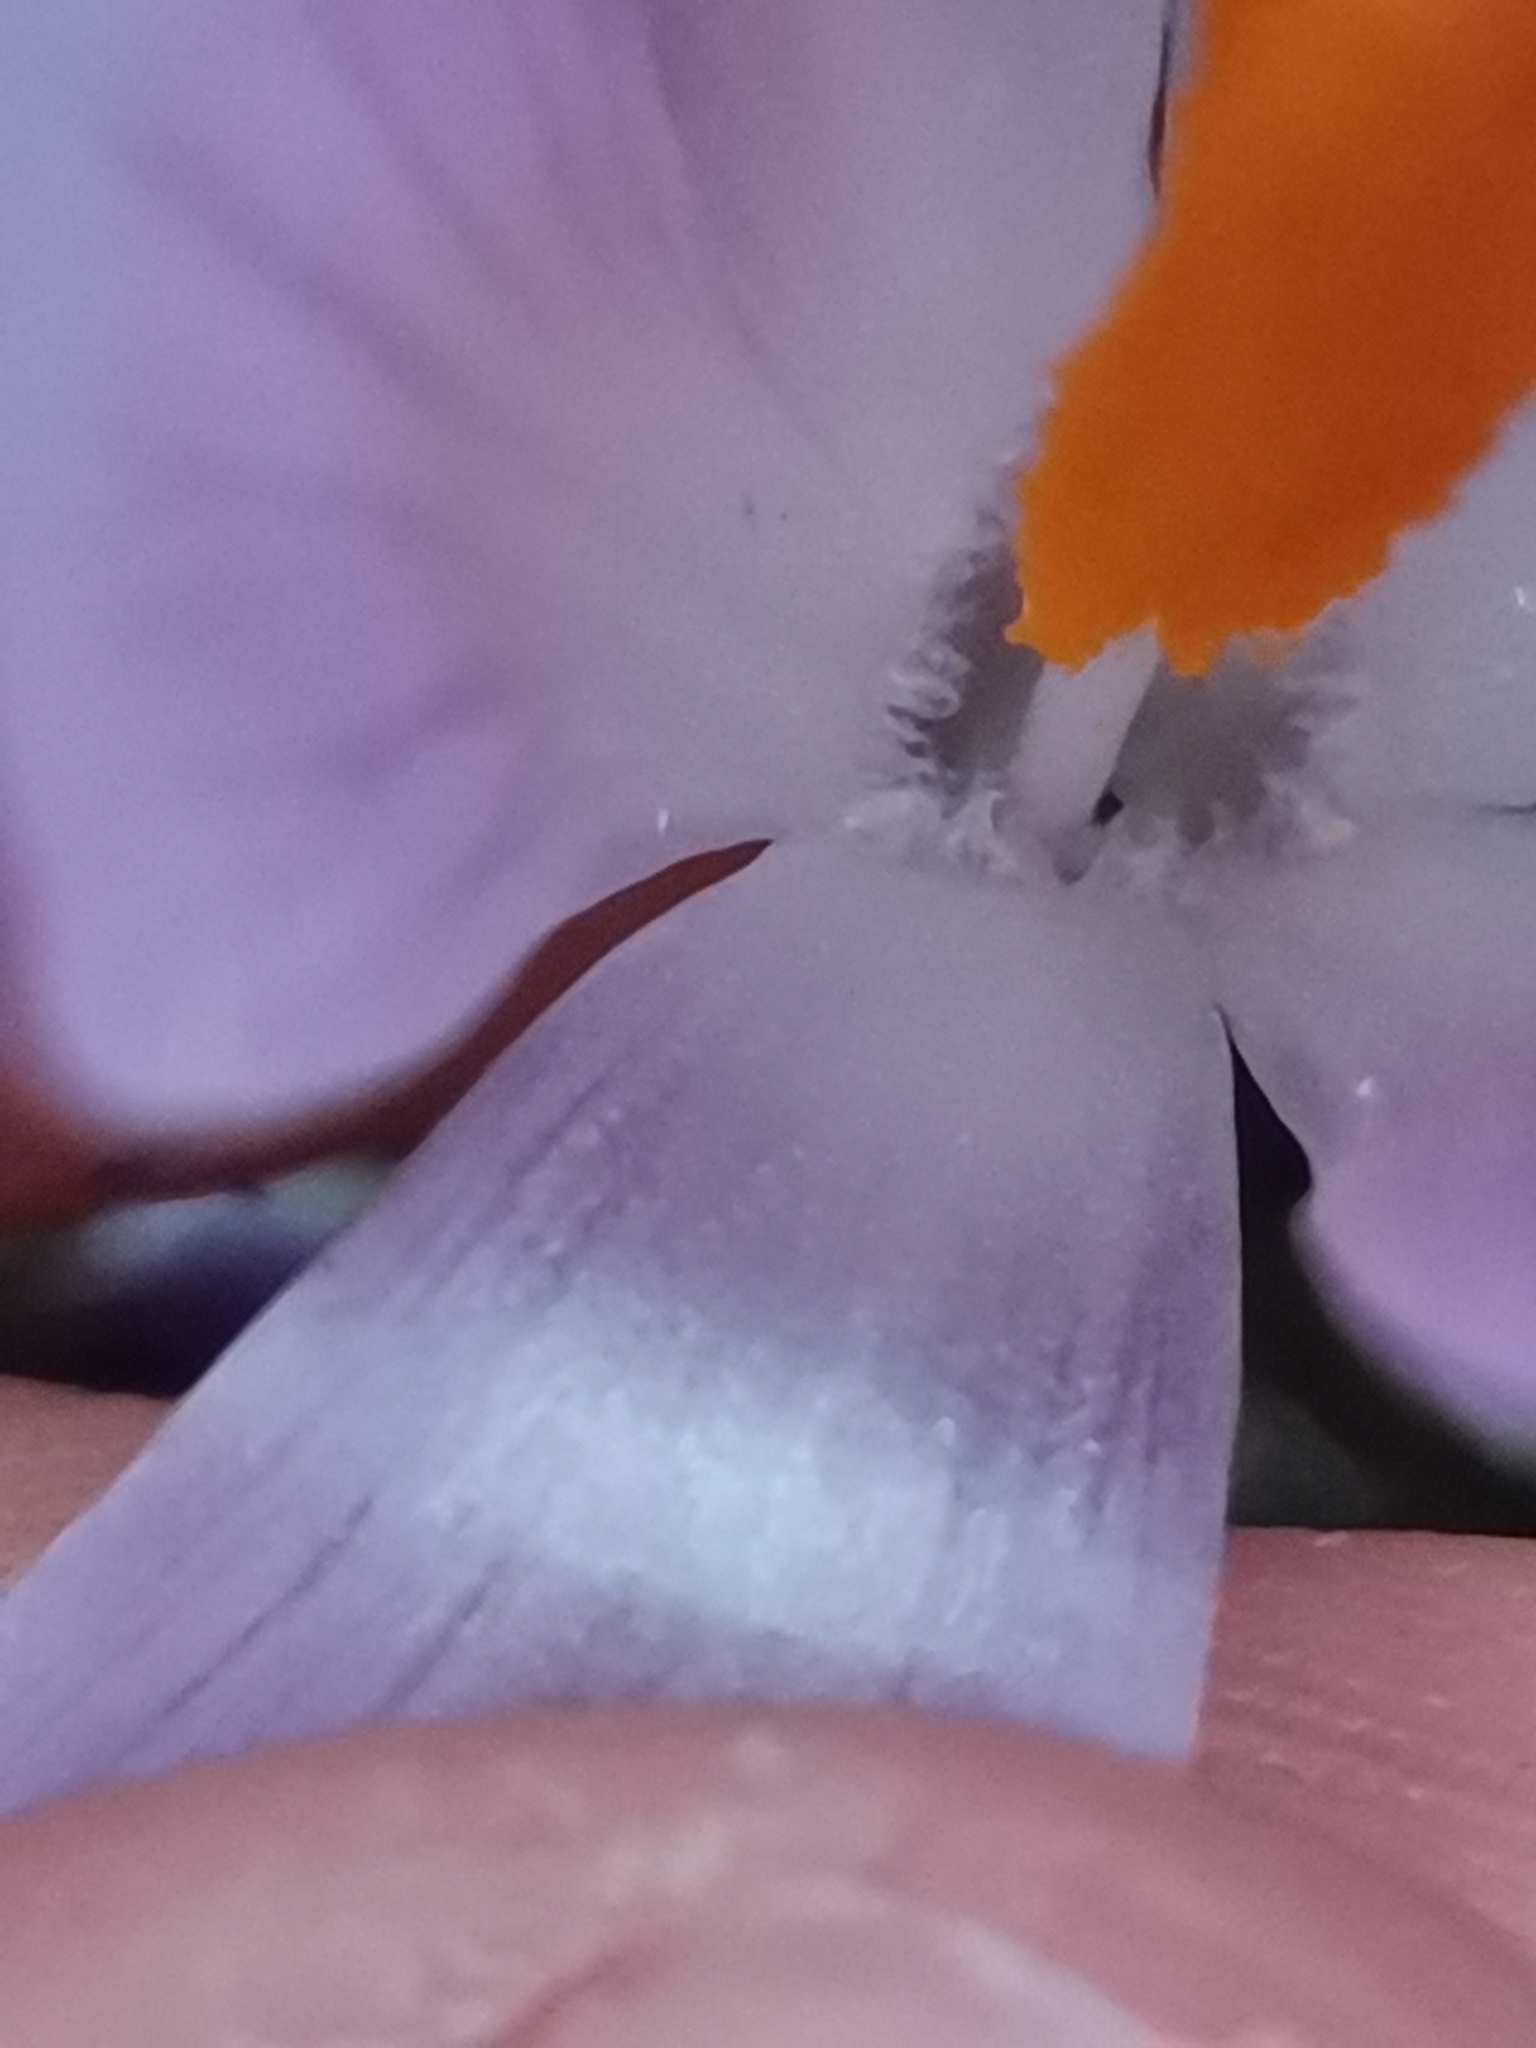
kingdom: Plantae
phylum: Tracheophyta
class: Liliopsida
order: Asparagales
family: Iridaceae
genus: Crocus
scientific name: Crocus heuffelianus
